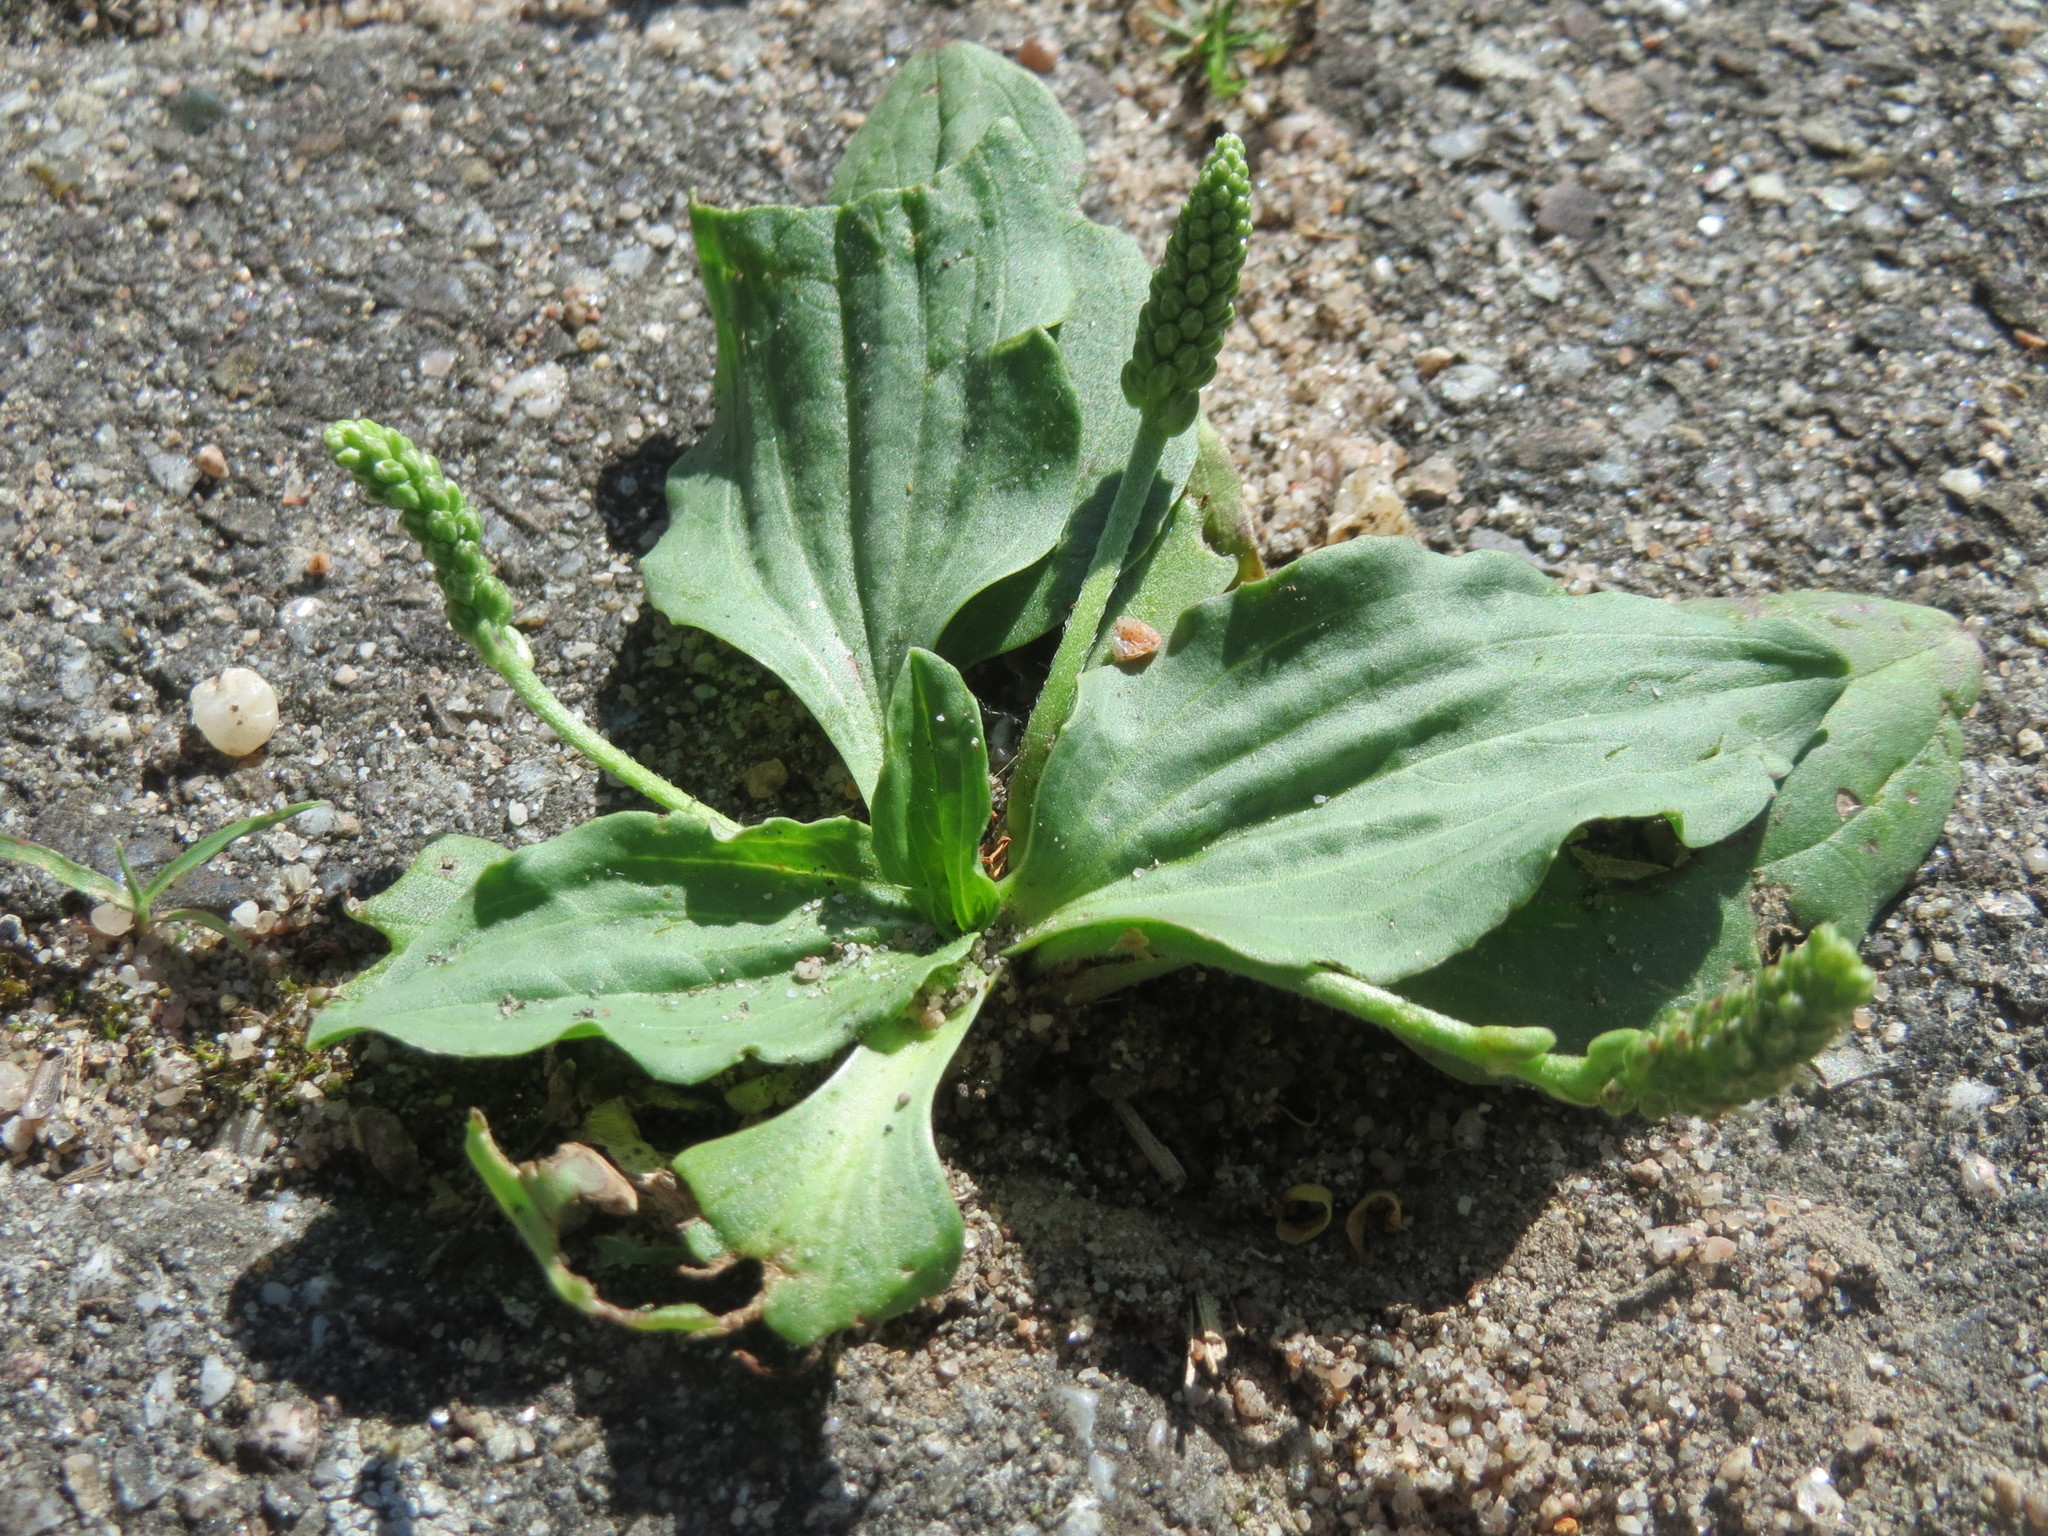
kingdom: Plantae
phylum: Tracheophyta
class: Magnoliopsida
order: Lamiales
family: Plantaginaceae
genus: Plantago
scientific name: Plantago major
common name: Common plantain
